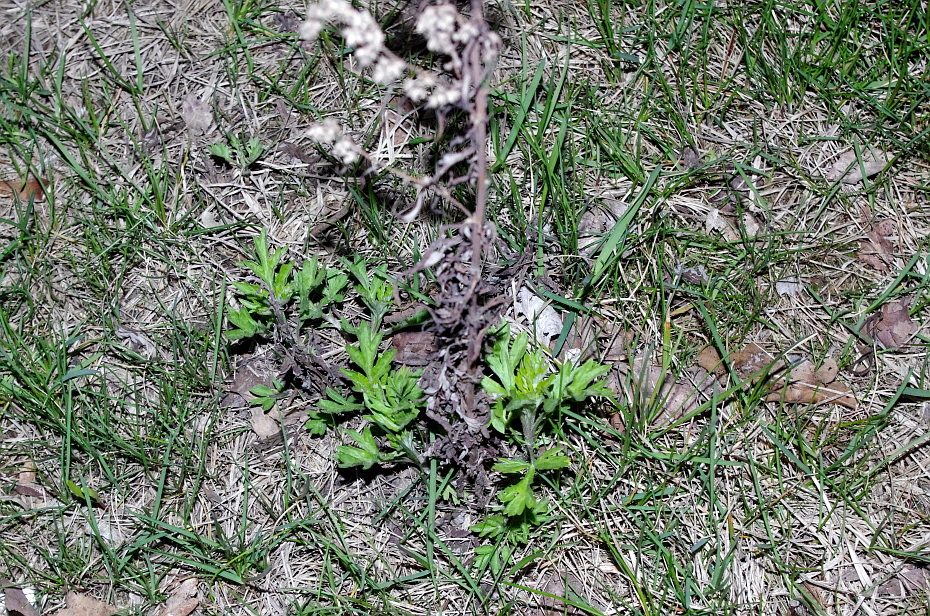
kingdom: Plantae
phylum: Tracheophyta
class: Magnoliopsida
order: Asterales
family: Asteraceae
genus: Artemisia
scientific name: Artemisia vulgaris
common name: Mugwort
